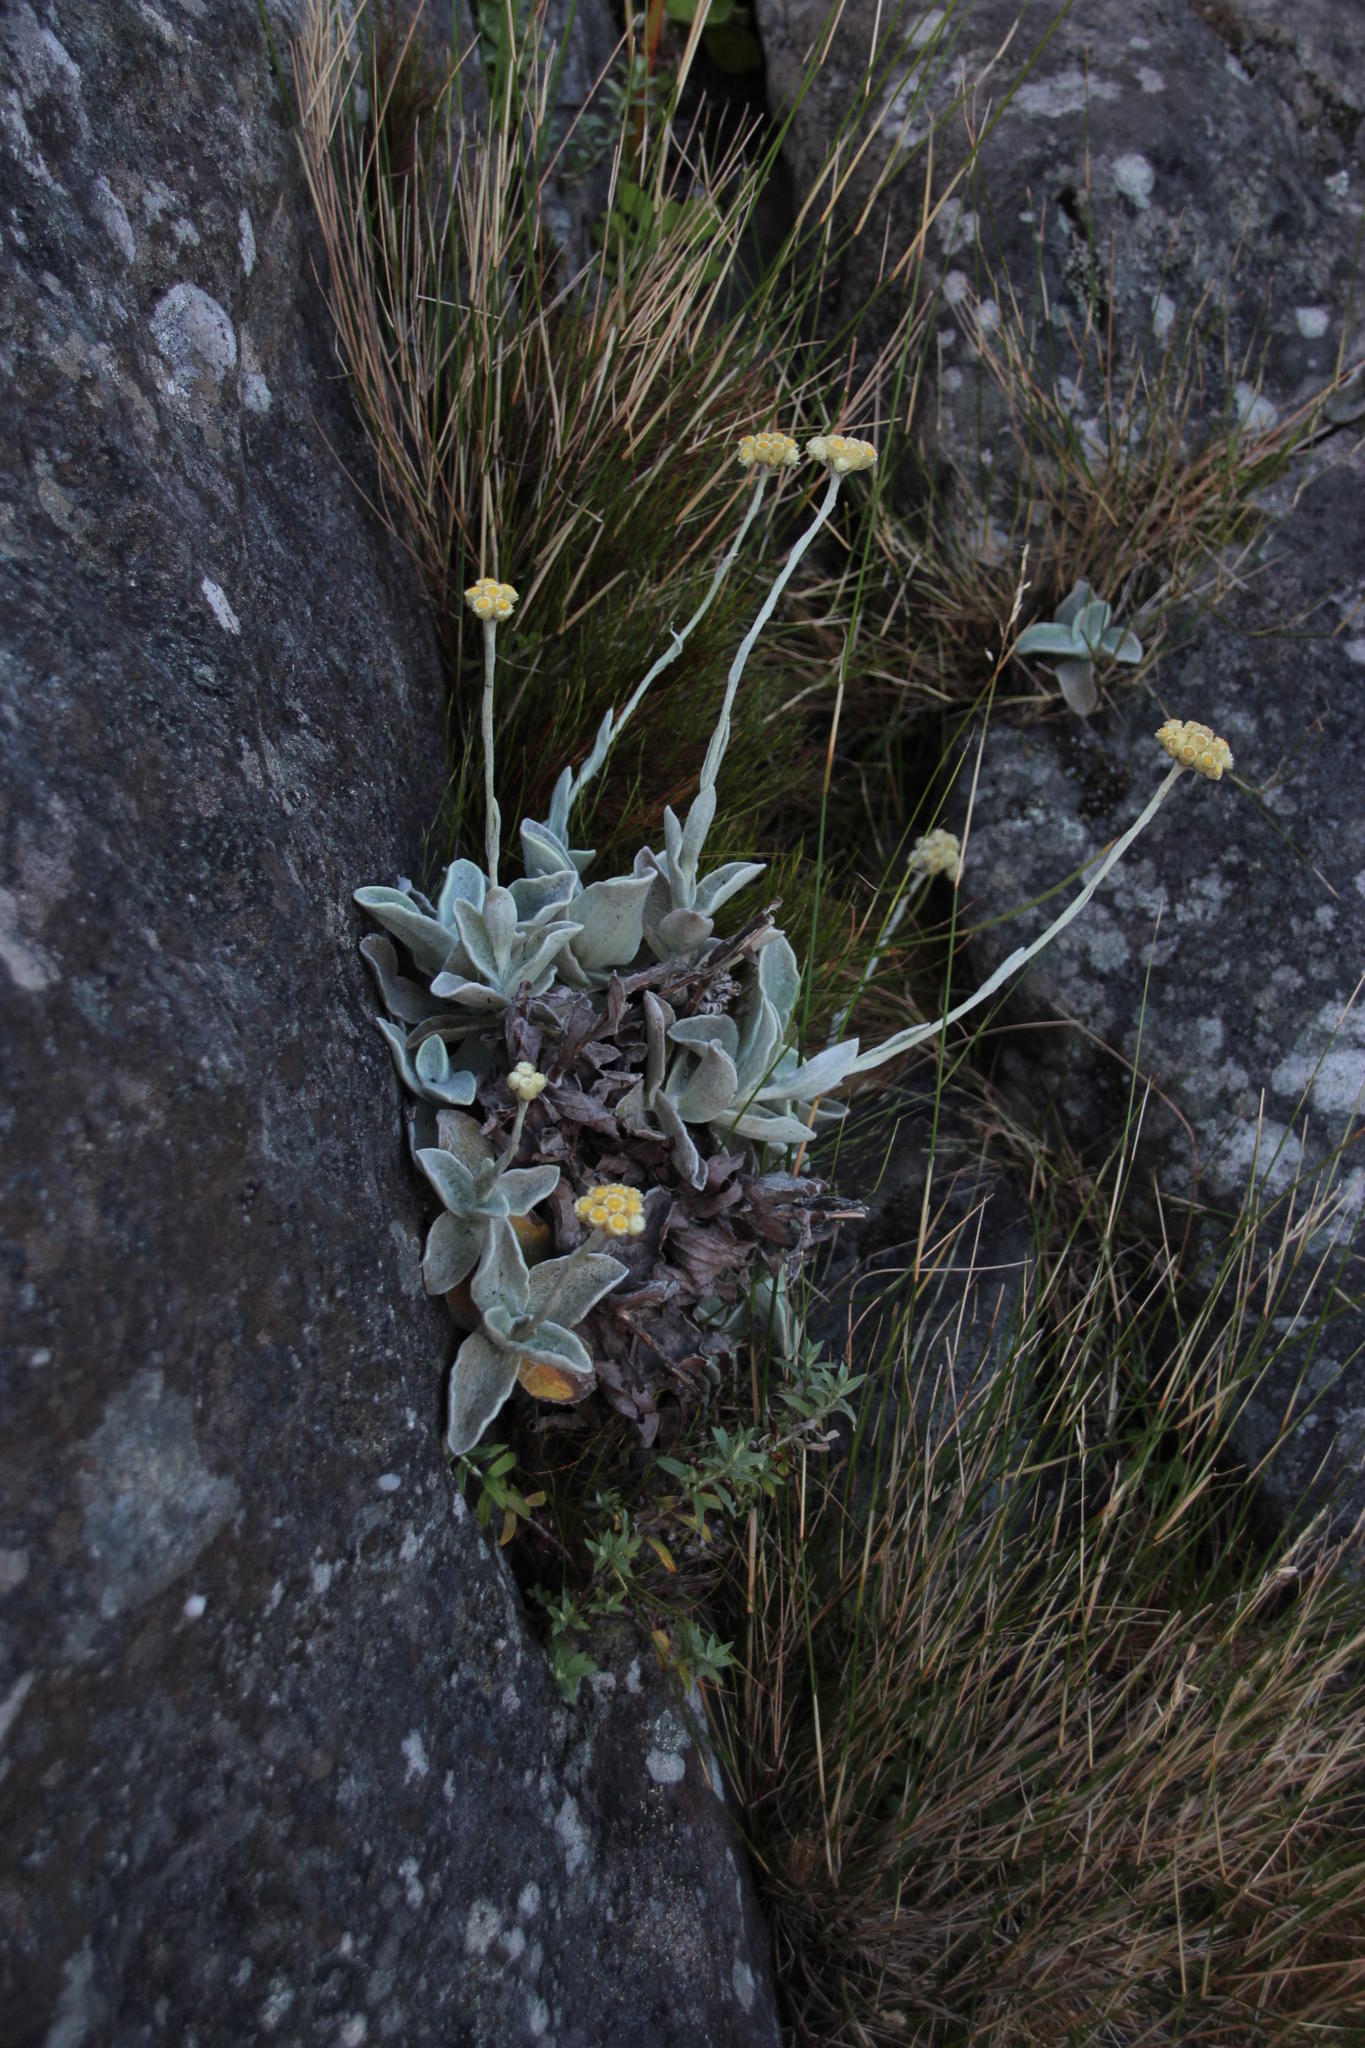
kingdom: Plantae
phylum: Tracheophyta
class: Magnoliopsida
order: Asterales
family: Asteraceae
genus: Helichrysum
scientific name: Helichrysum grandiflorum
